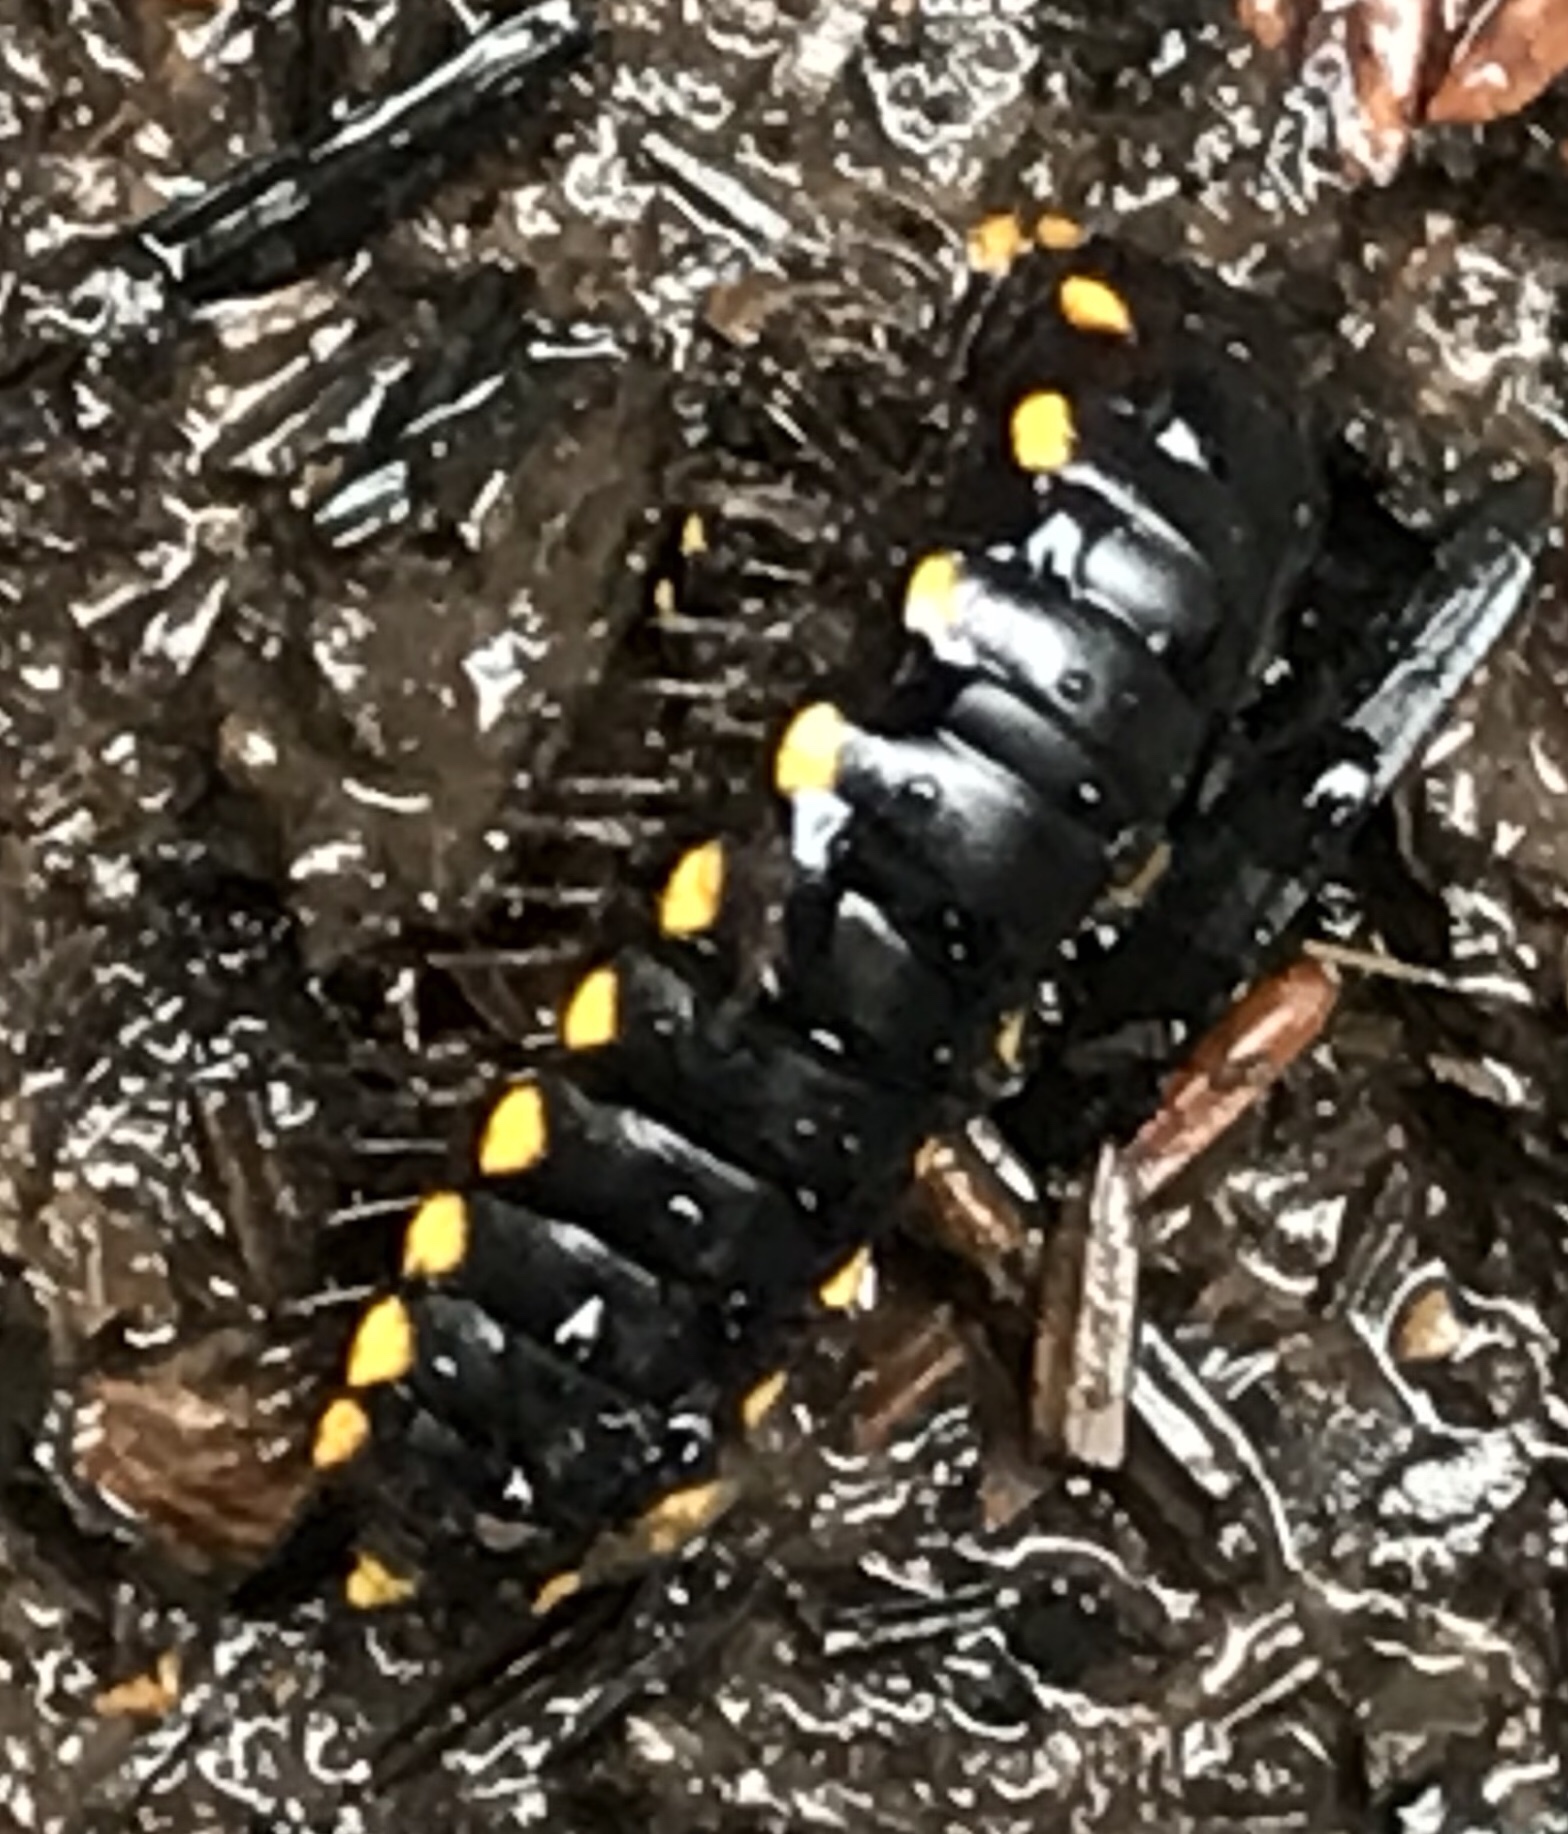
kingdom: Animalia
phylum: Arthropoda
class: Diplopoda
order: Polydesmida
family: Xystodesmidae
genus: Harpaphe
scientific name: Harpaphe haydeniana
